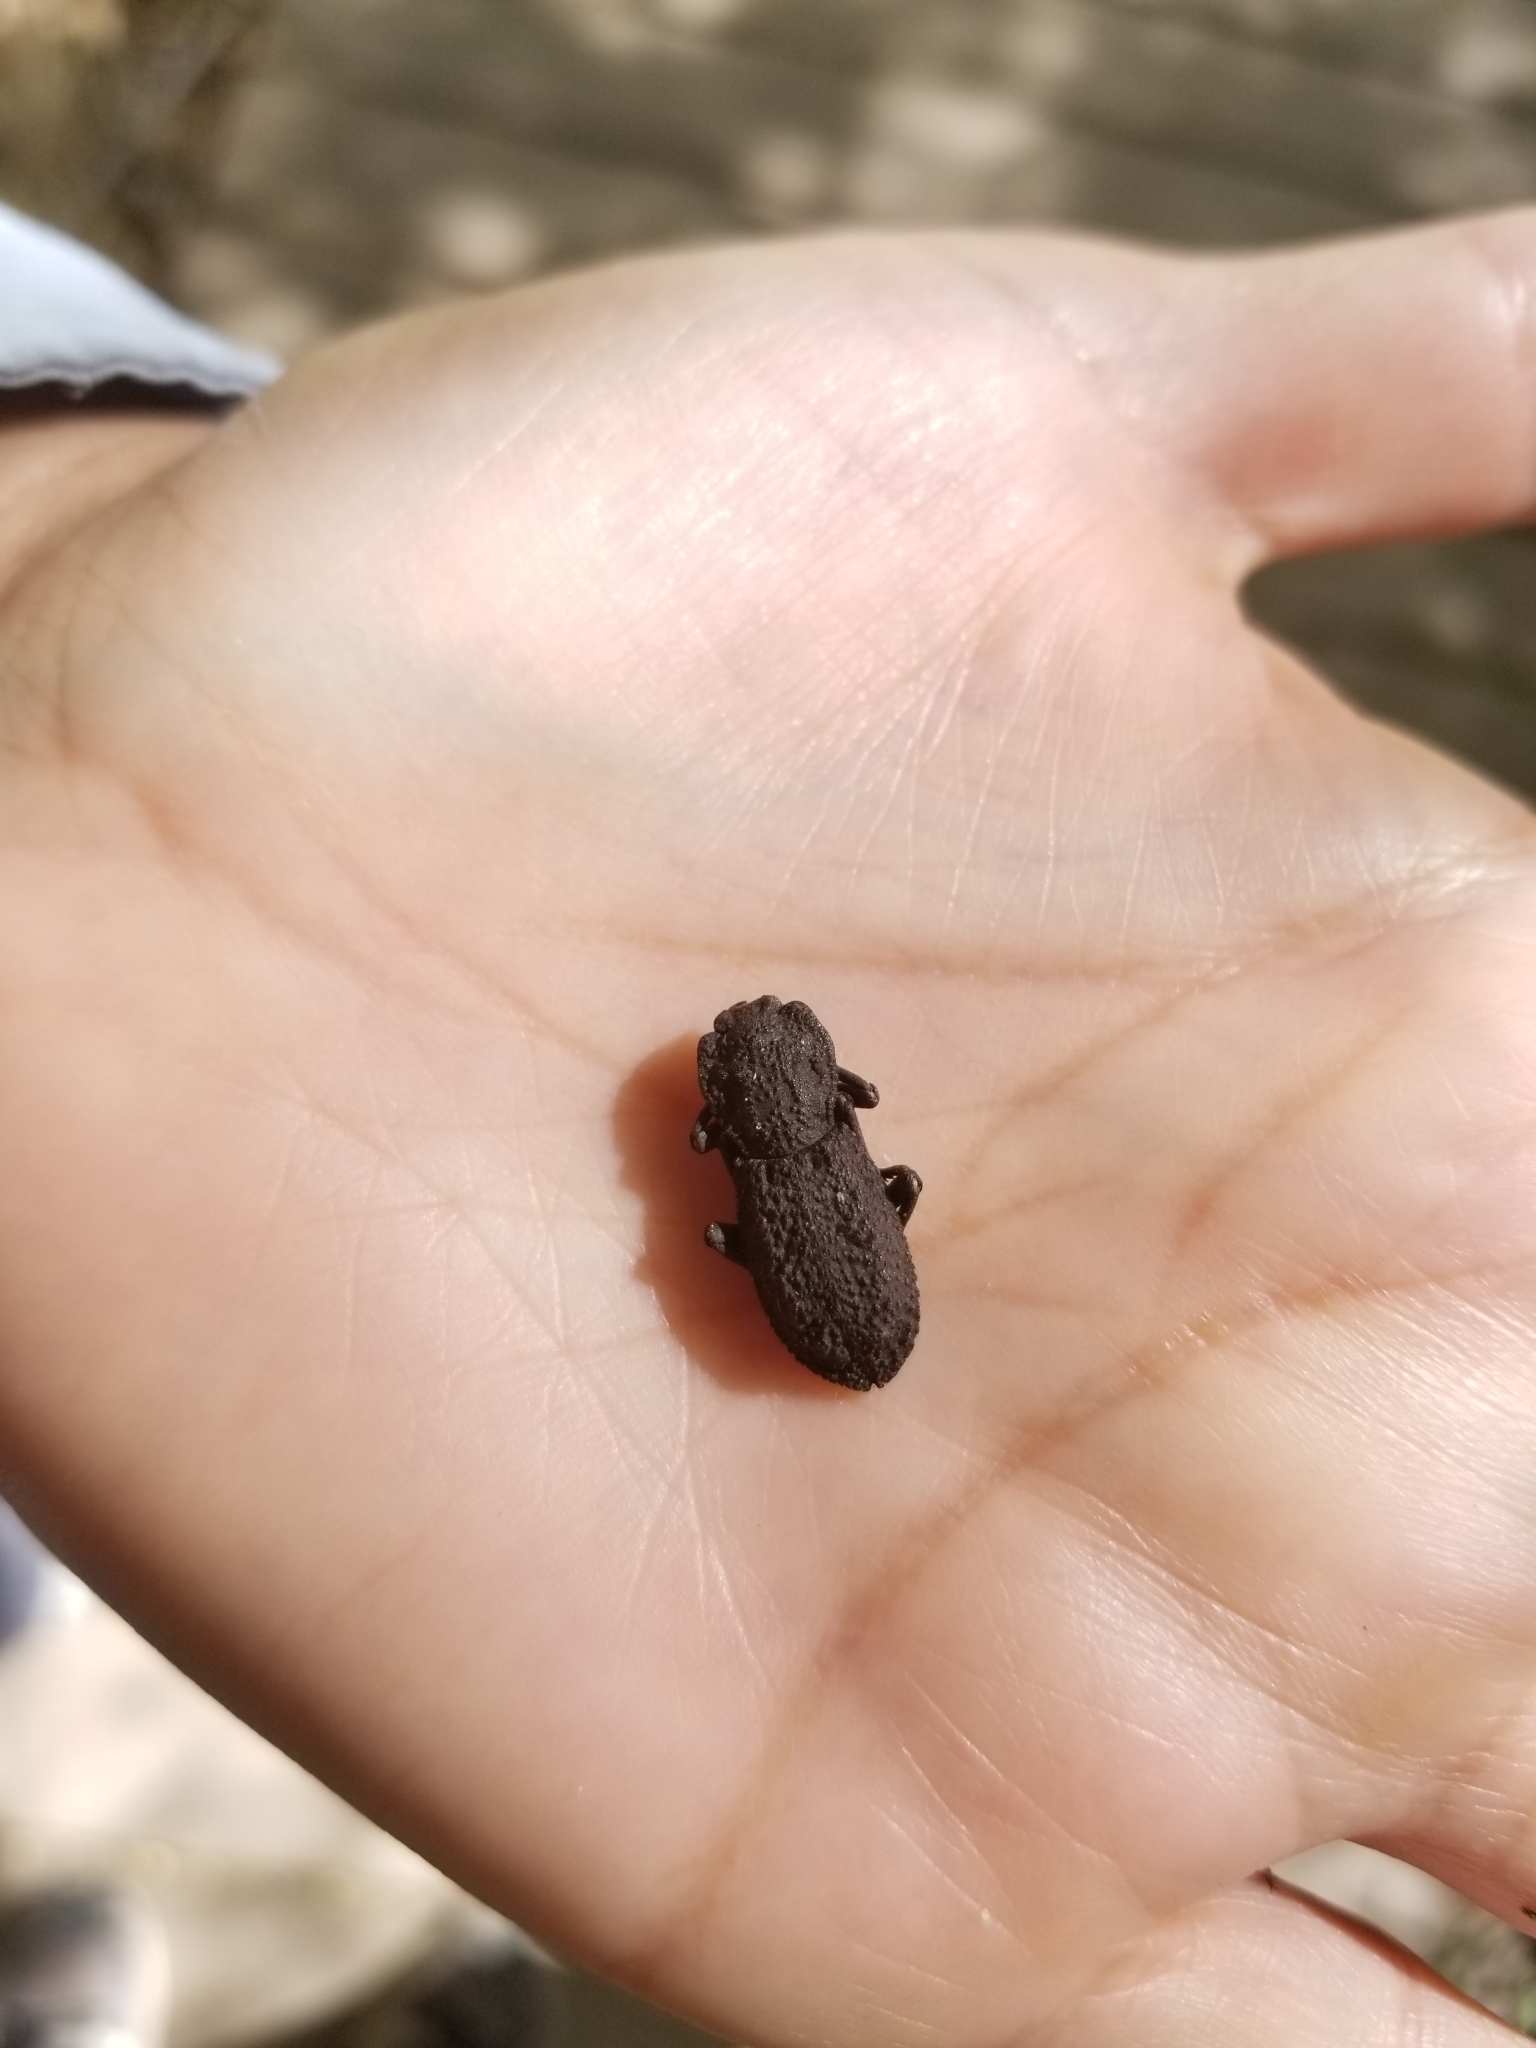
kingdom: Animalia
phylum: Arthropoda
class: Insecta
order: Coleoptera
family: Zopheridae
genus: Phloeodes
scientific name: Phloeodes diabolicus
